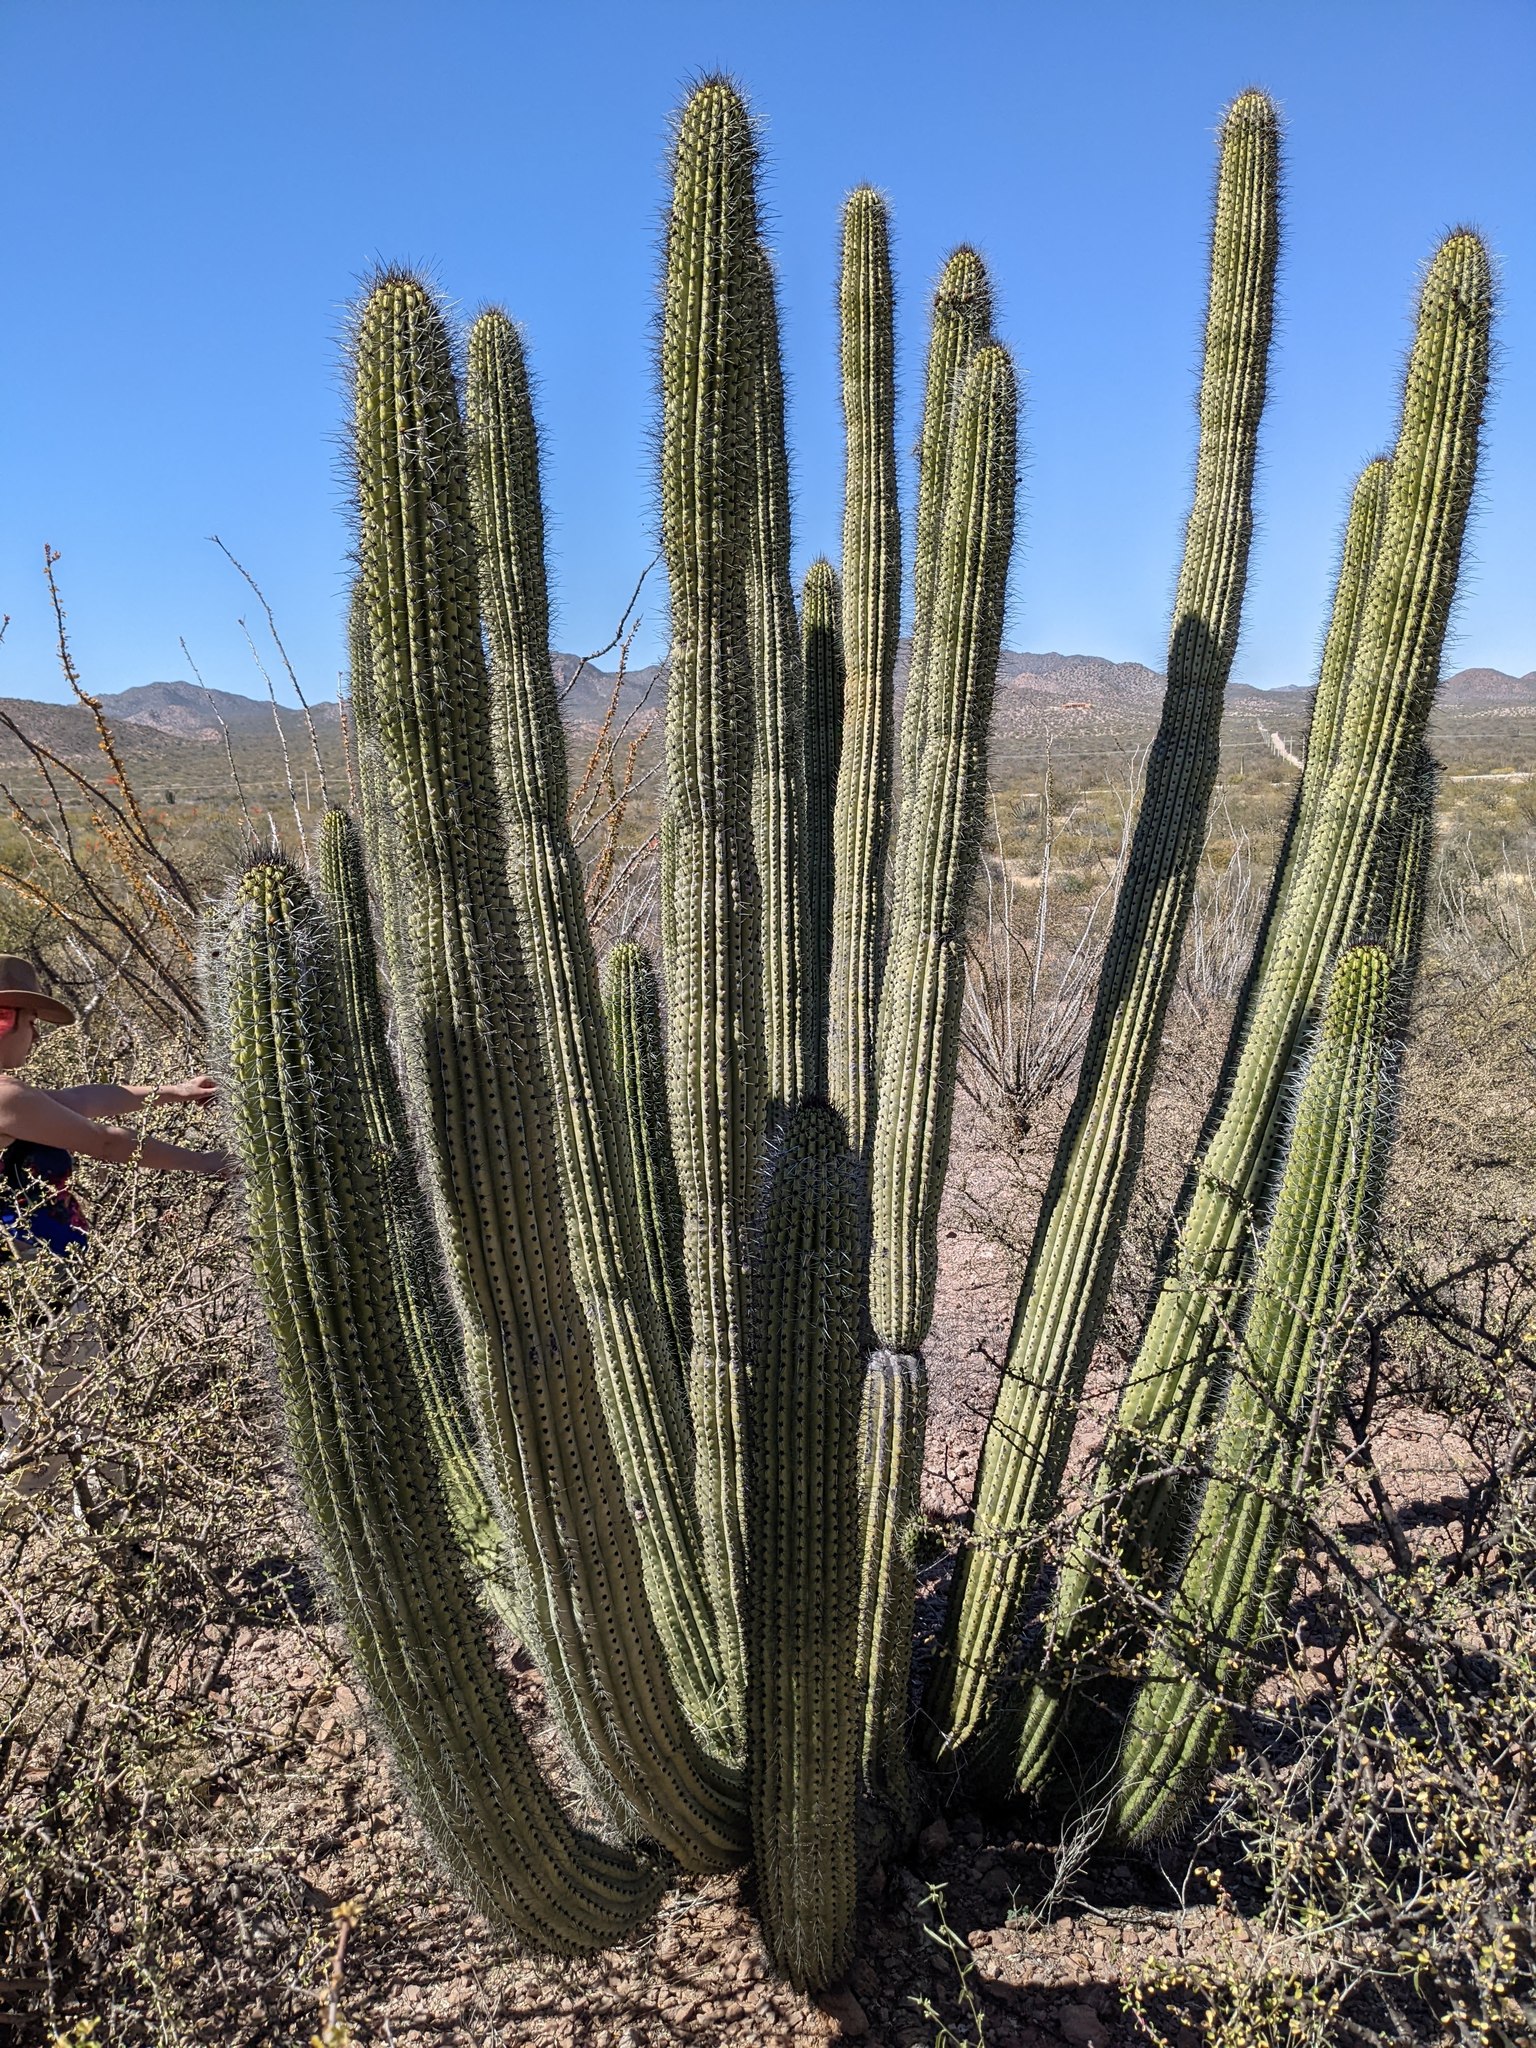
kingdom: Plantae
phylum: Tracheophyta
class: Magnoliopsida
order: Caryophyllales
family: Cactaceae
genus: Stenocereus
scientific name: Stenocereus thurberi
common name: Organ pipe cactus
